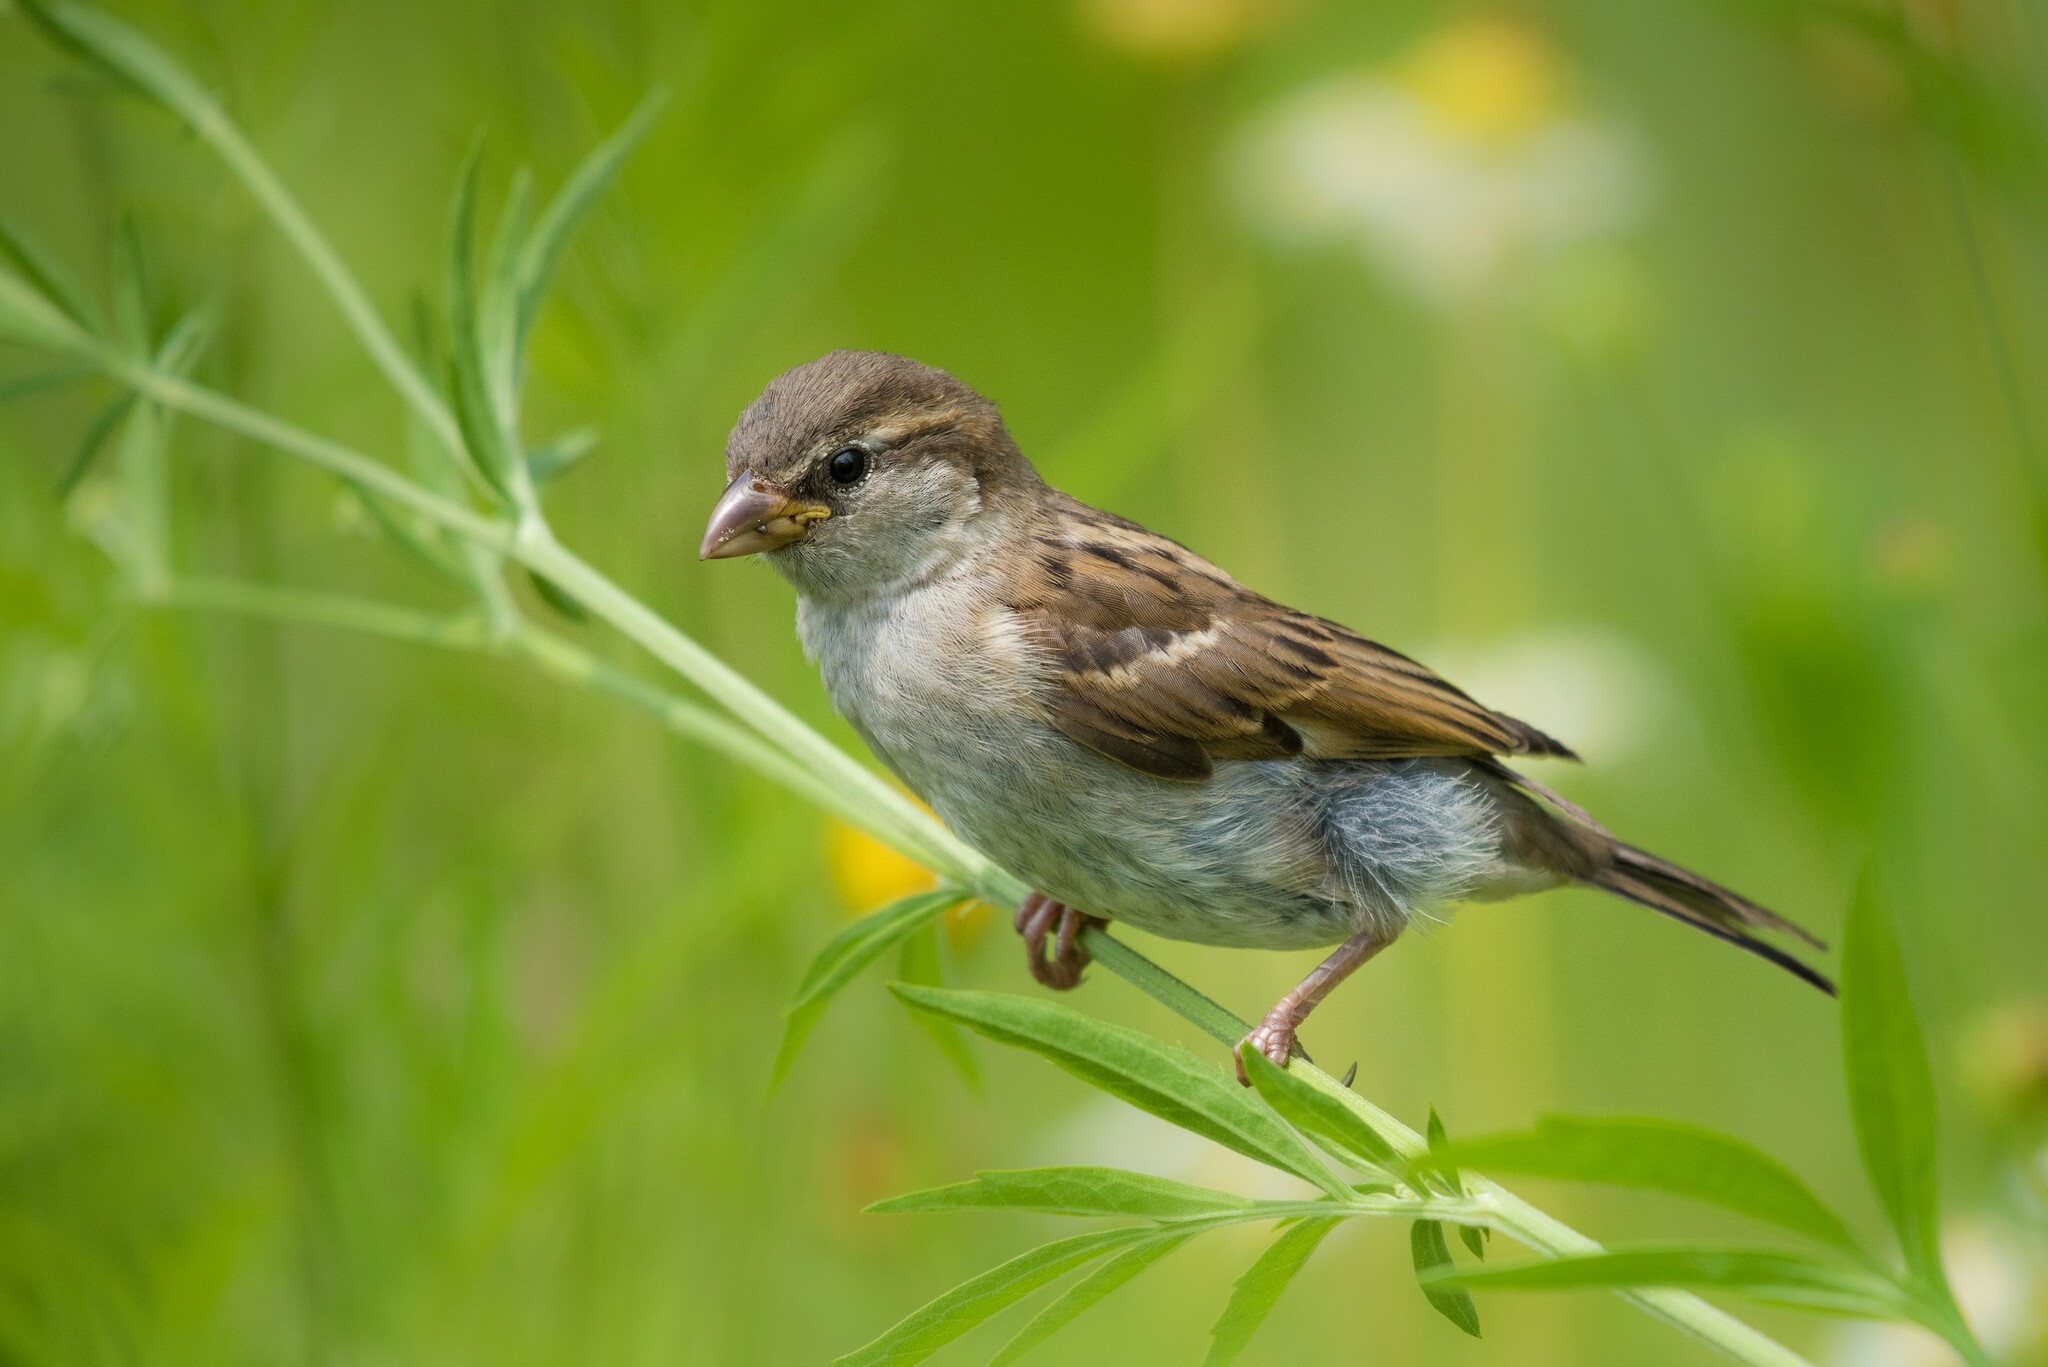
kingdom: Animalia
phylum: Chordata
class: Aves
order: Passeriformes
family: Passeridae
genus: Passer
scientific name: Passer domesticus
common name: House sparrow
